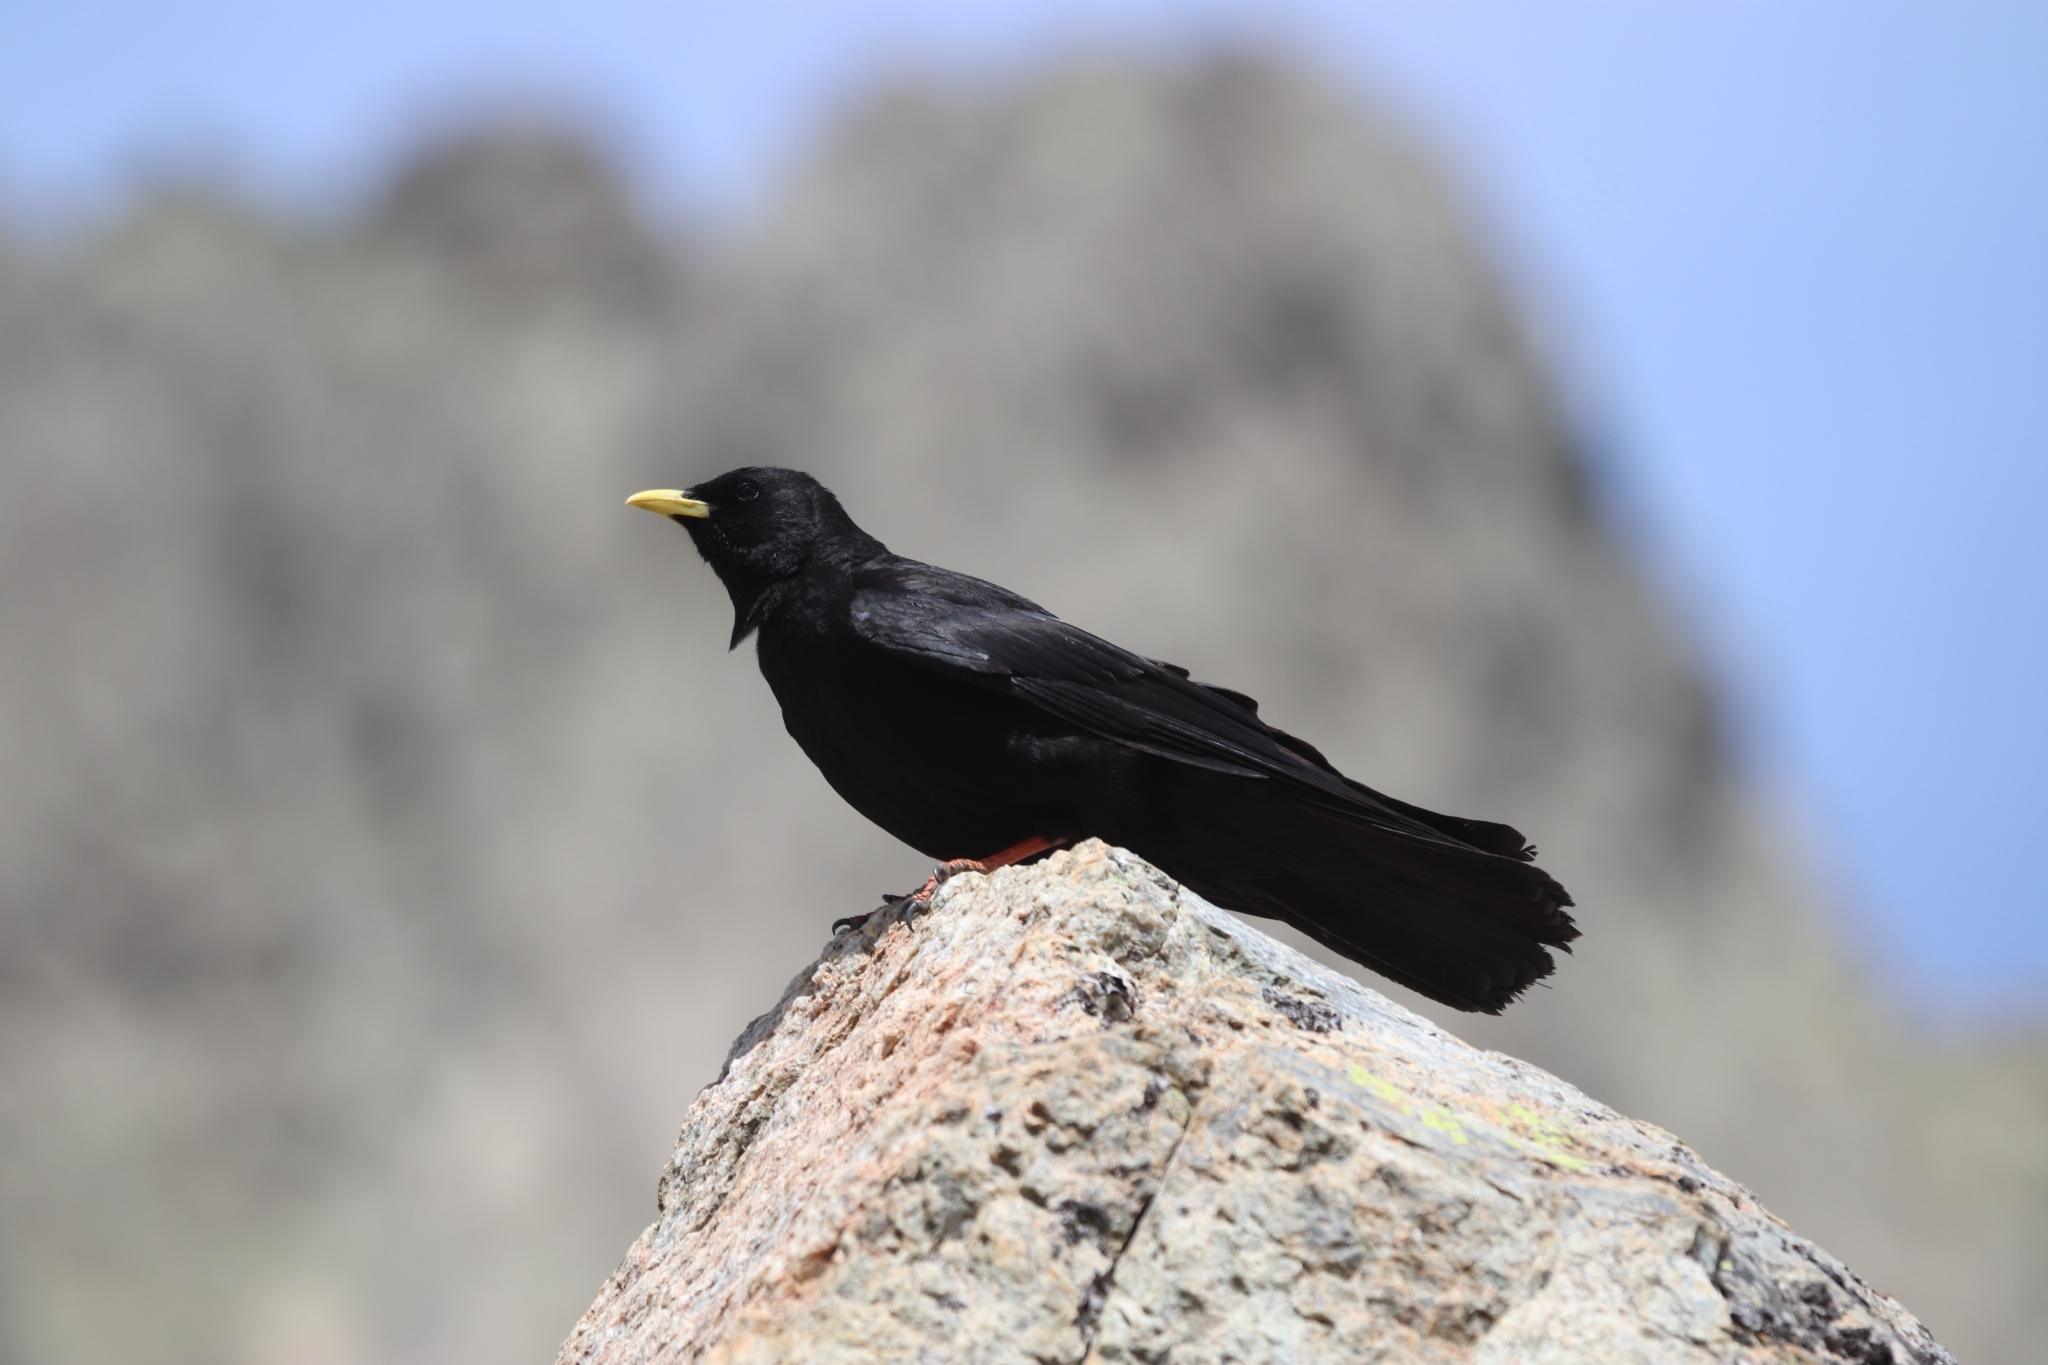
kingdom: Animalia
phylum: Chordata
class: Aves
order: Passeriformes
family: Corvidae
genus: Pyrrhocorax
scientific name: Pyrrhocorax graculus
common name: Alpine chough
